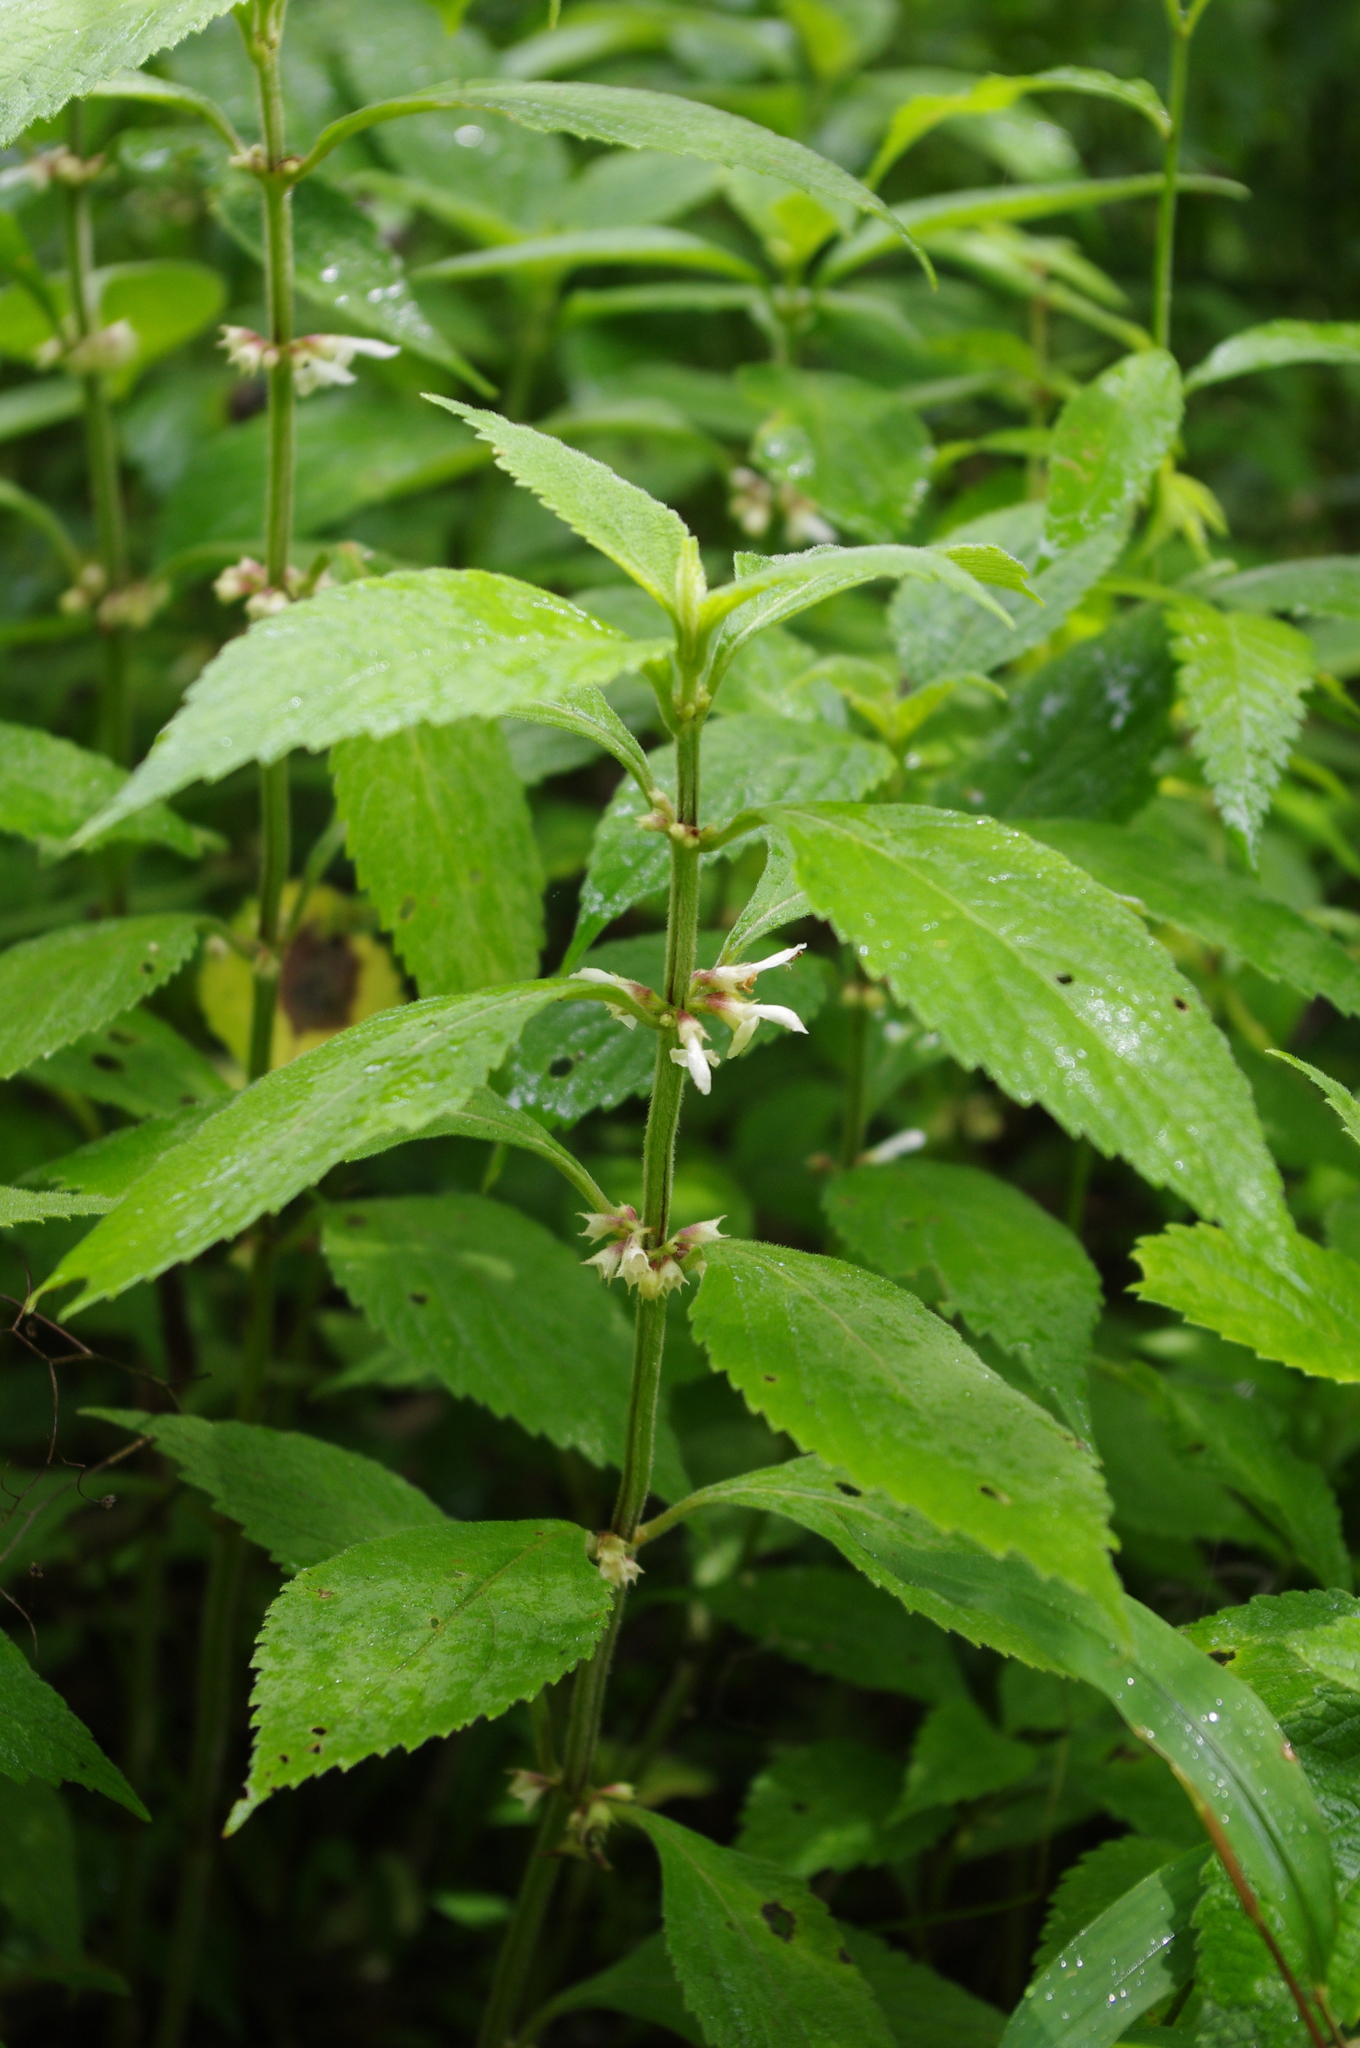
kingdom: Plantae
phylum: Tracheophyta
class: Magnoliopsida
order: Lamiales
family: Lamiaceae
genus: Paraphlomis
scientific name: Paraphlomis formosana
